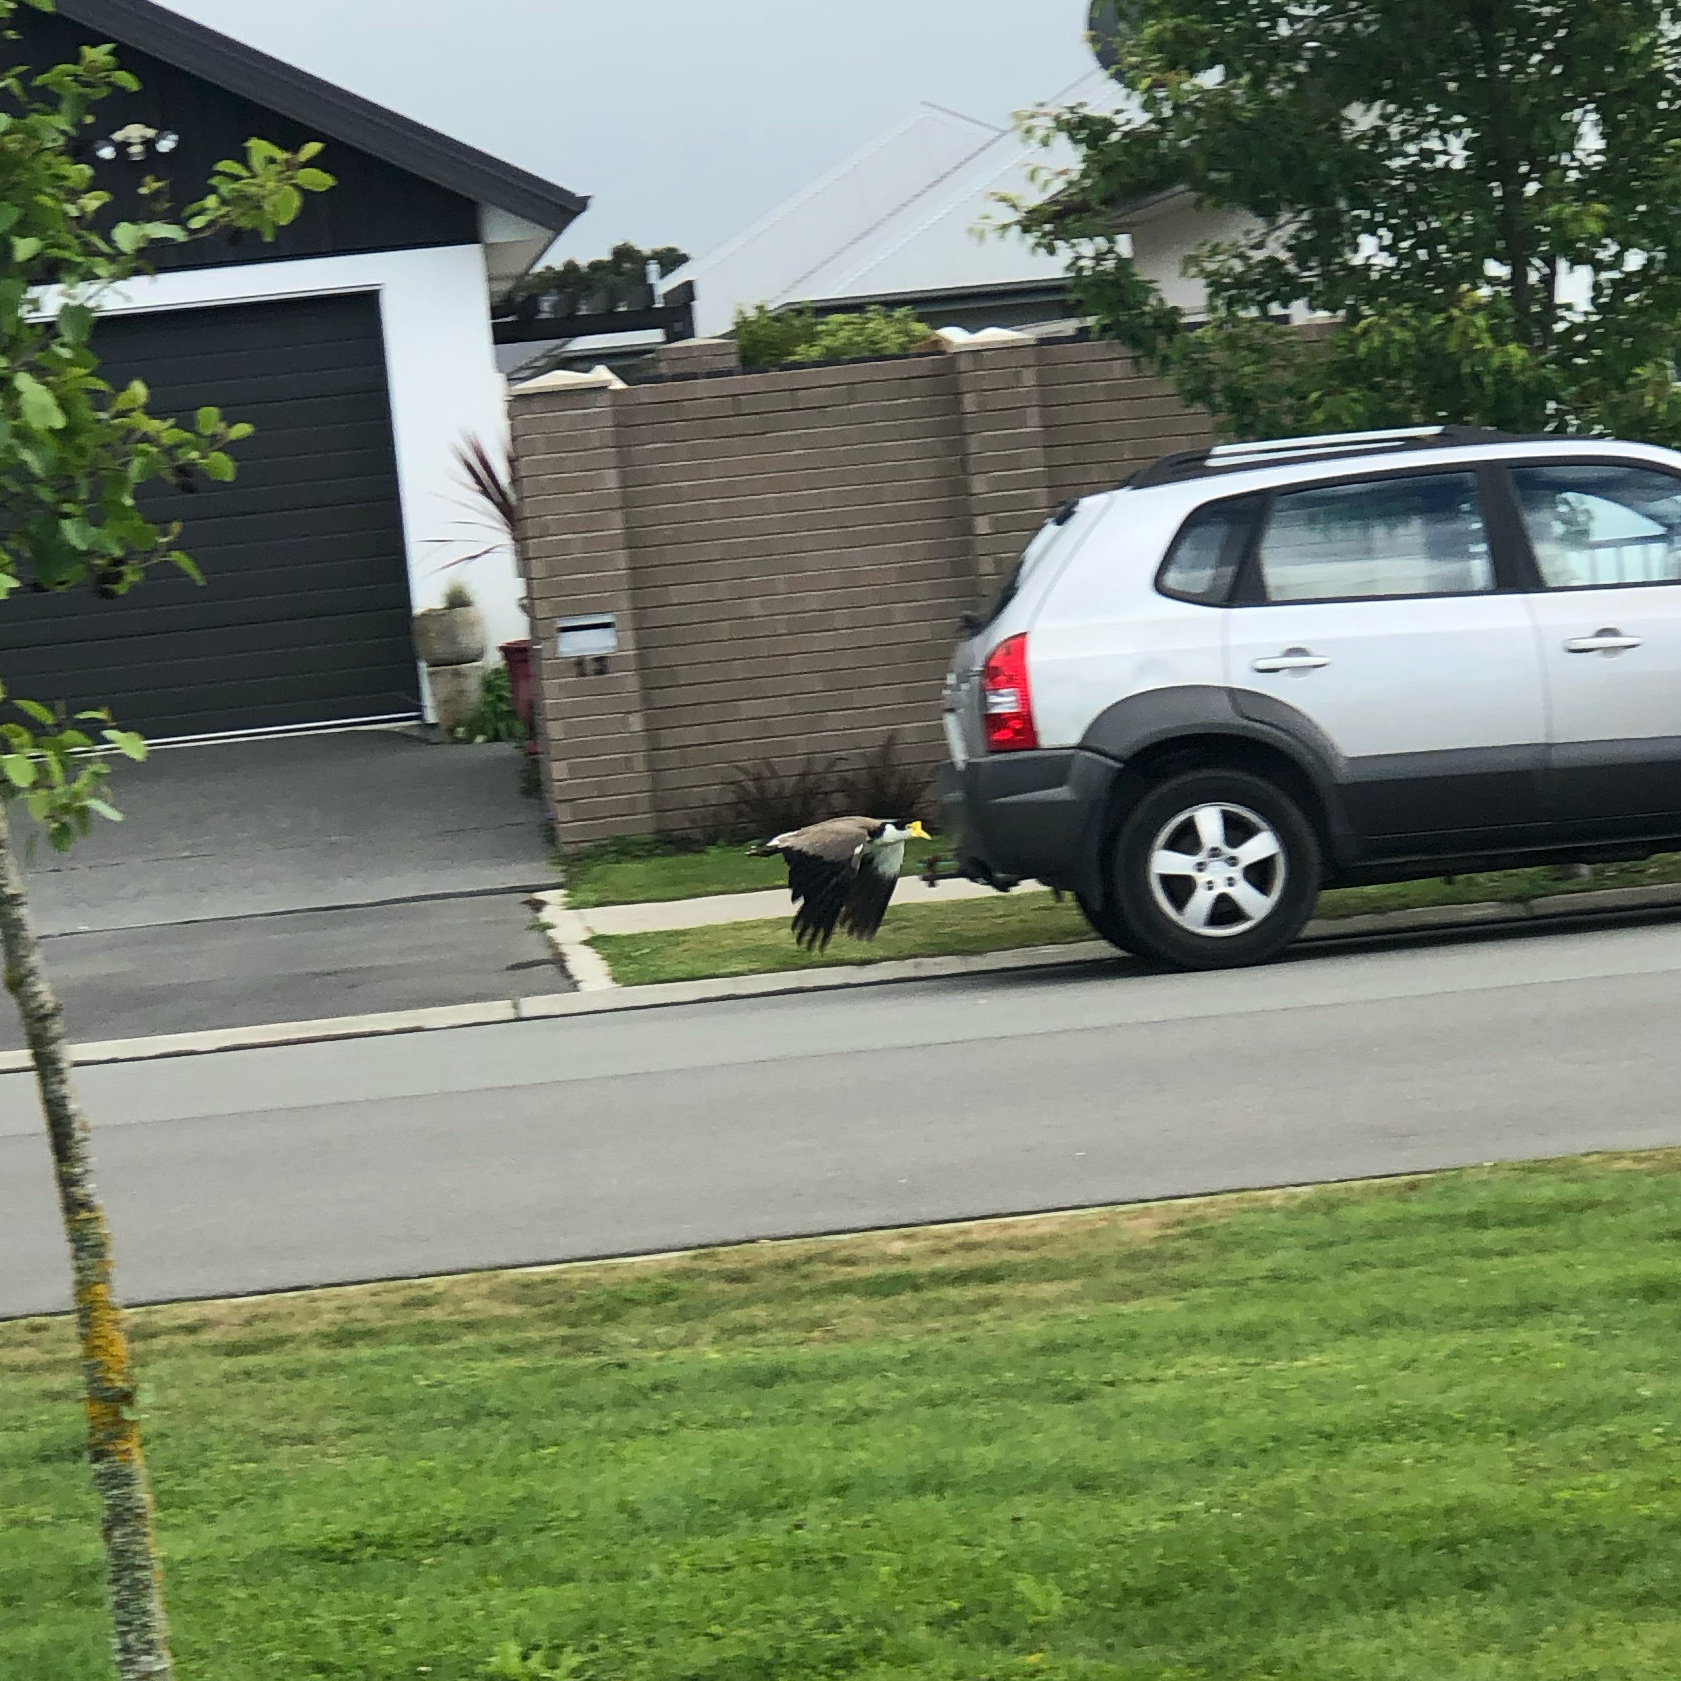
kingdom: Animalia
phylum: Chordata
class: Aves
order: Charadriiformes
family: Charadriidae
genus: Vanellus
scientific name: Vanellus miles
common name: Masked lapwing
